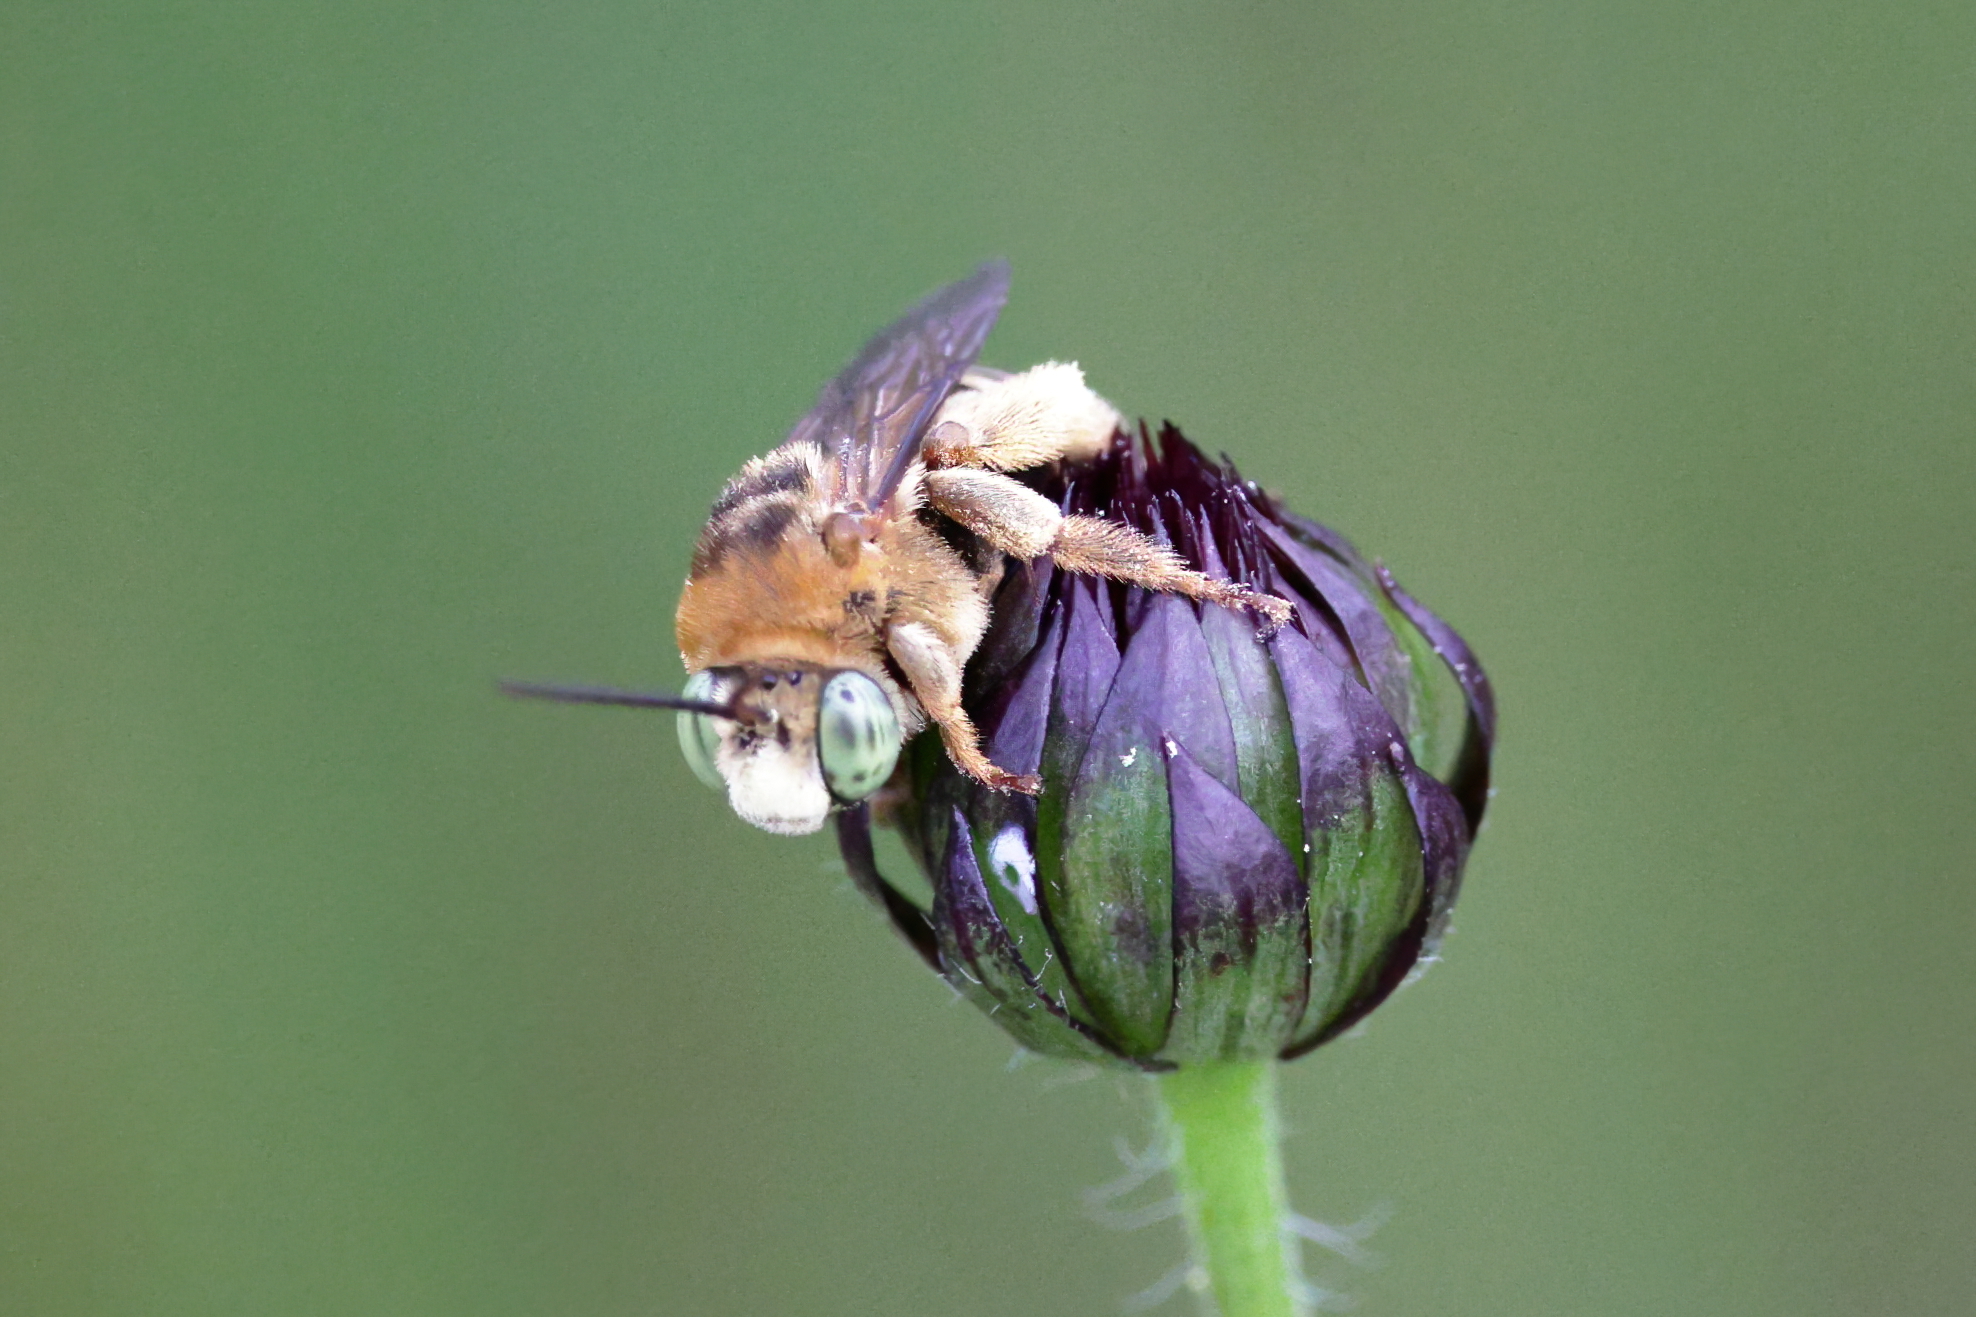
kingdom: Animalia
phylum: Arthropoda
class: Insecta
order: Hymenoptera
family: Apidae
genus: Svastra
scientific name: Svastra aegis
